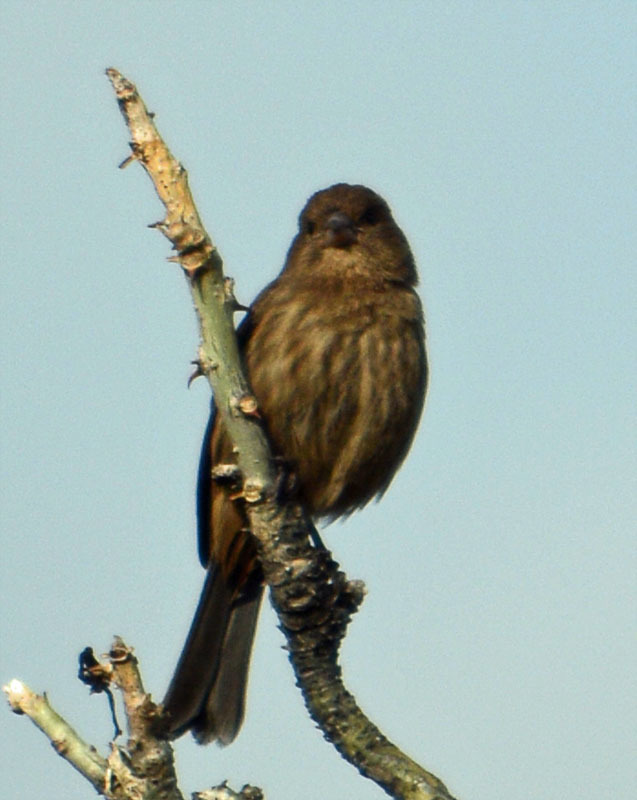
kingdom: Animalia
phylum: Chordata
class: Aves
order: Passeriformes
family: Fringillidae
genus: Haemorhous
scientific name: Haemorhous mexicanus
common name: House finch
